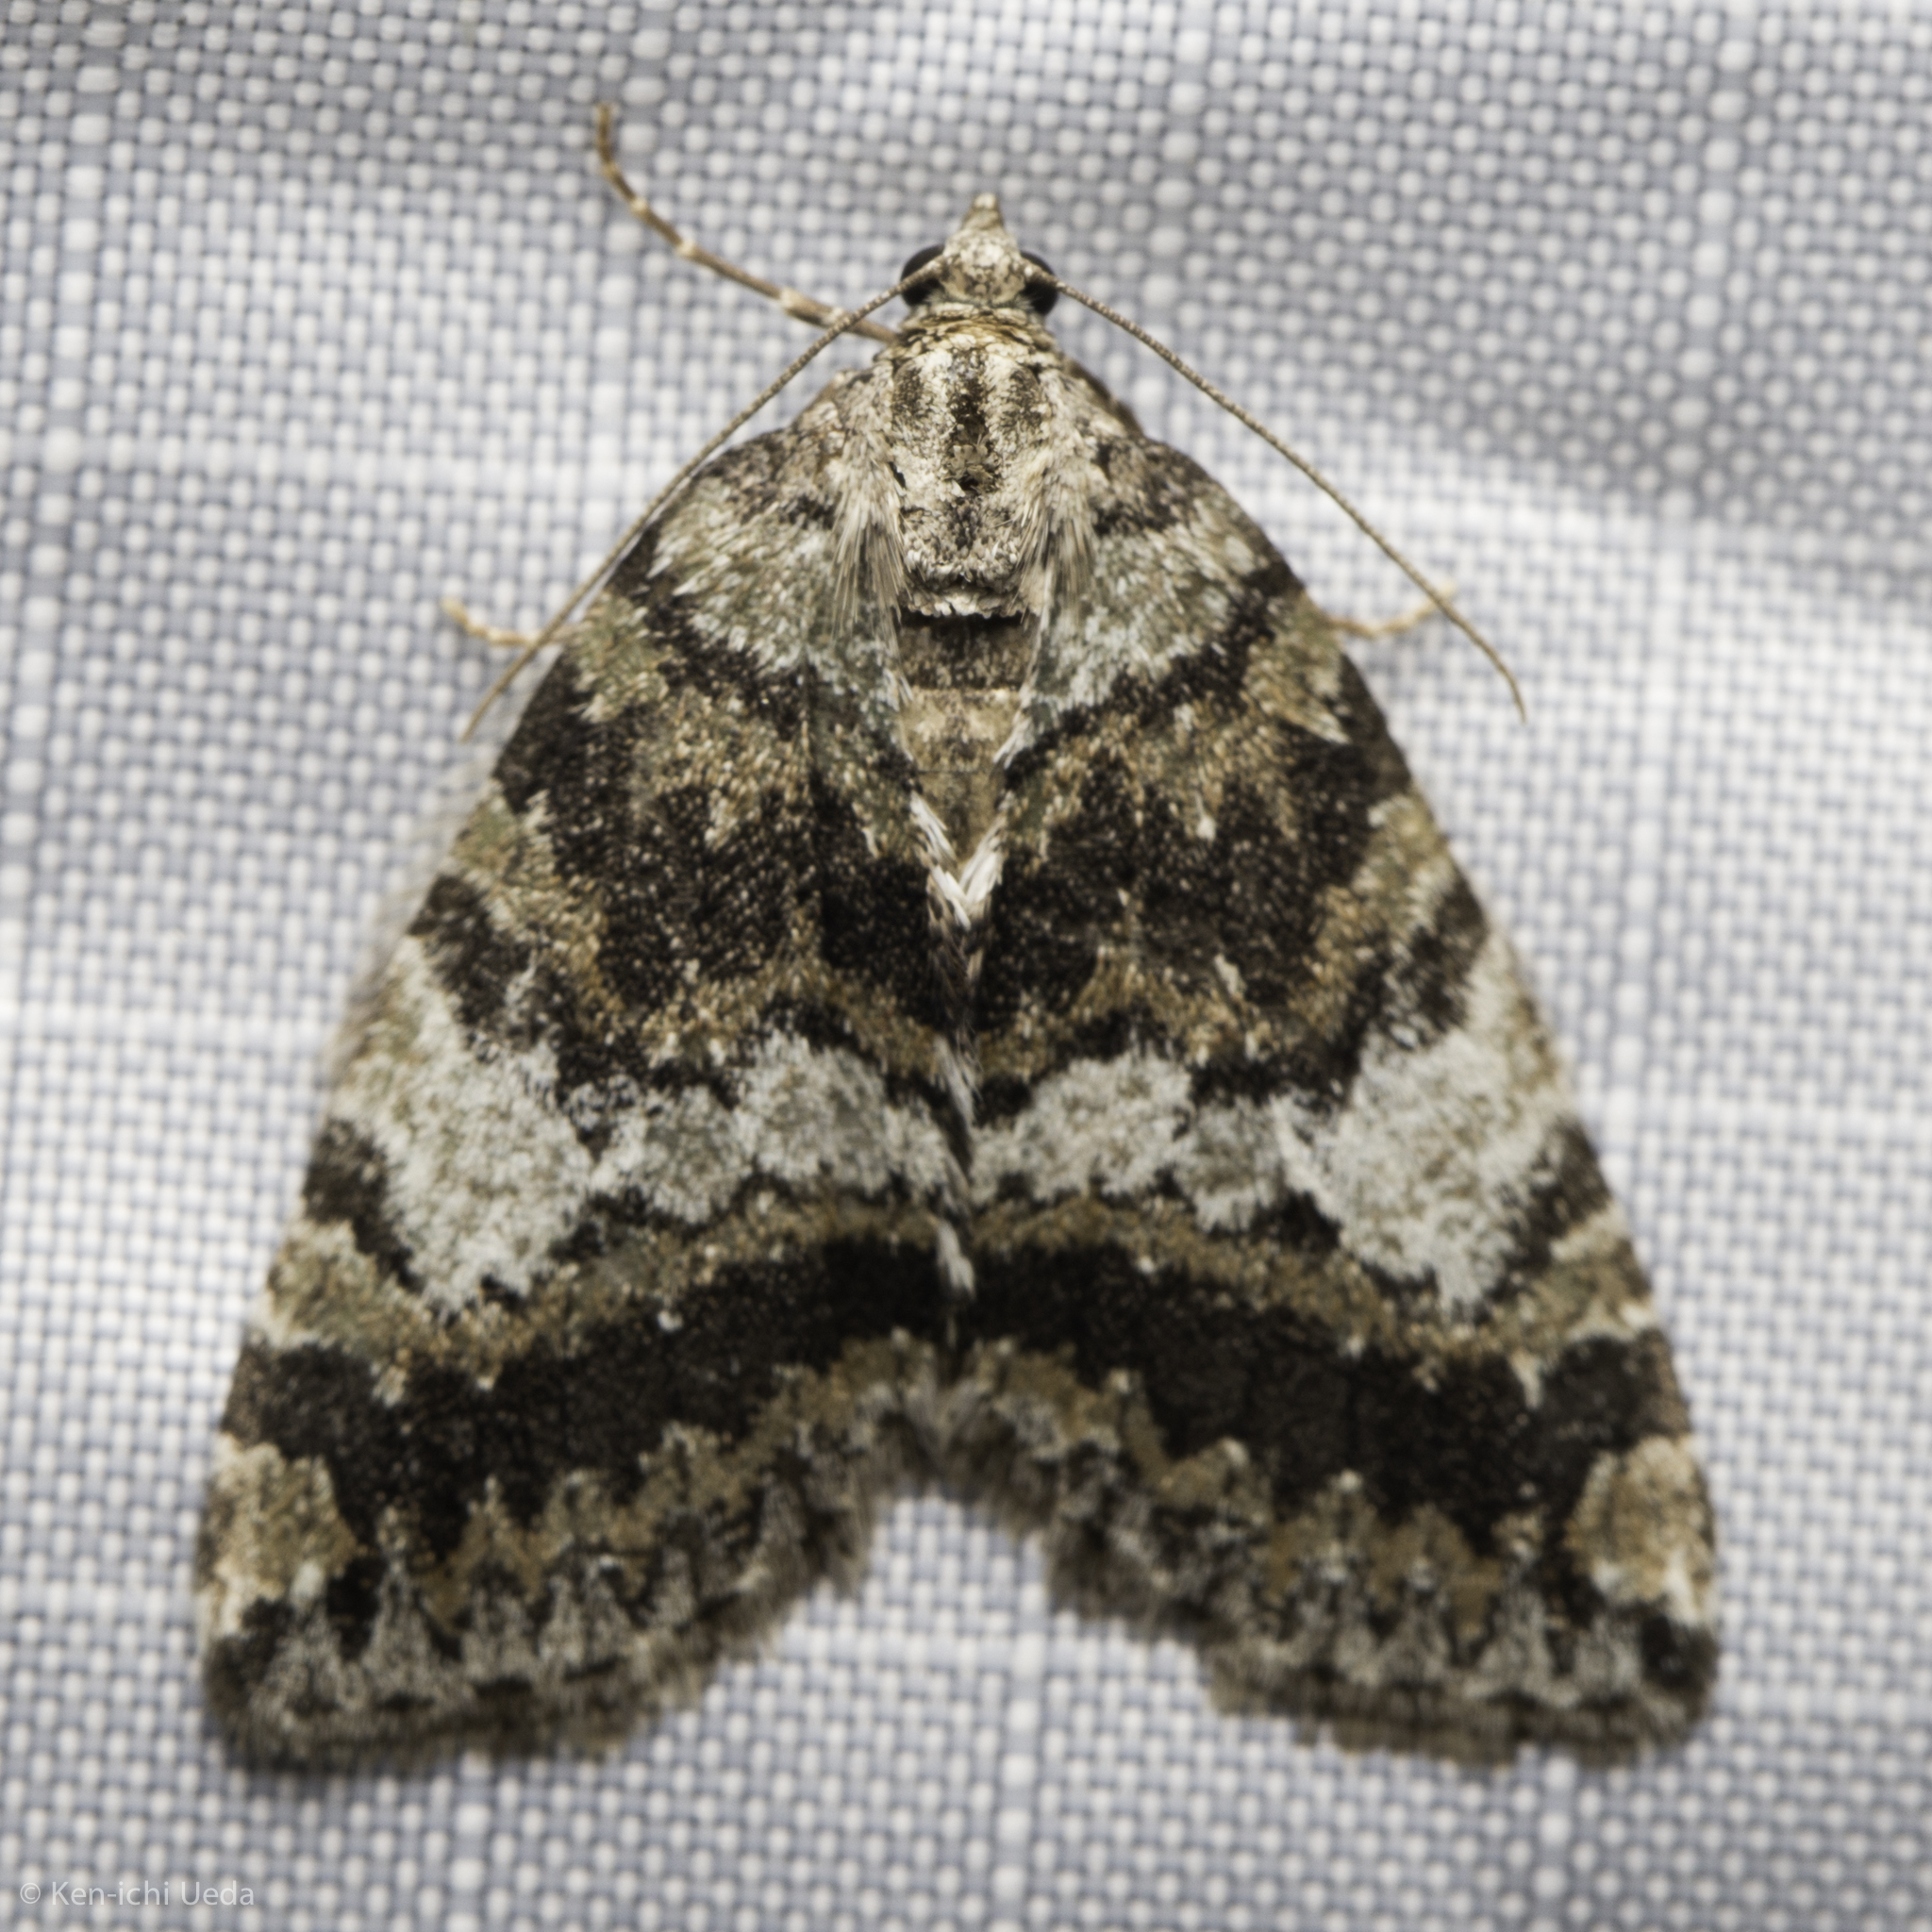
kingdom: Animalia
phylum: Arthropoda
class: Insecta
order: Lepidoptera
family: Geometridae
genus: Hydriomena
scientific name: Hydriomena nubilofasciata
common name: Oak winter highflier moth
